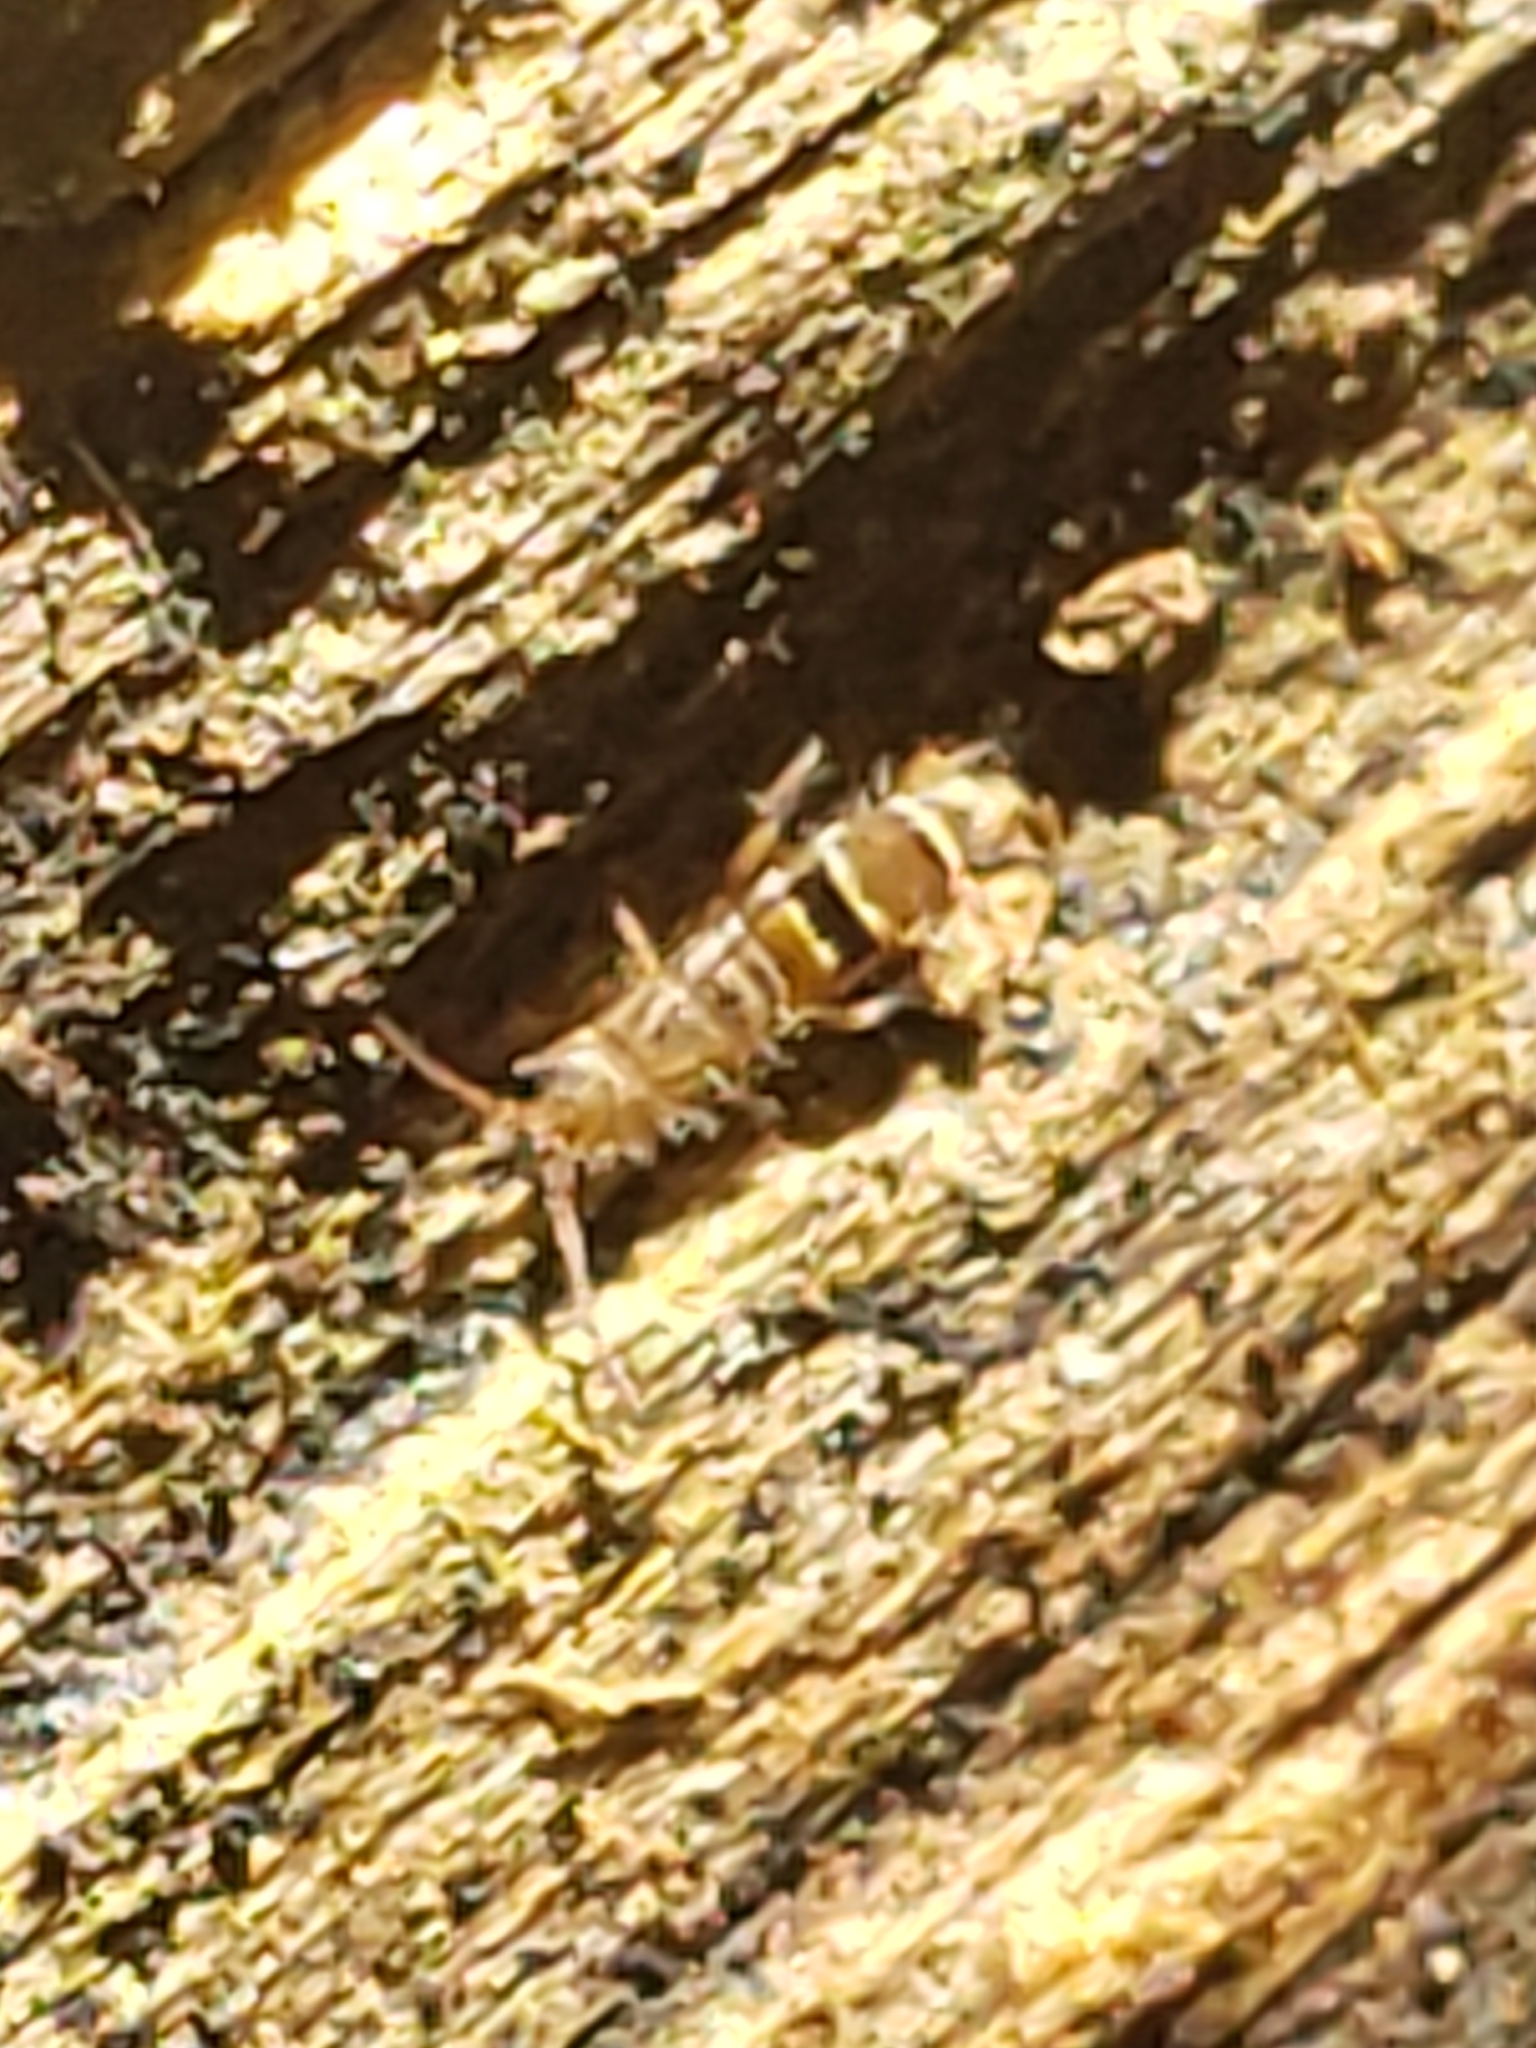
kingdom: Animalia
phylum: Arthropoda
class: Collembola
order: Entomobryomorpha
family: Orchesellidae
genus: Orchesella
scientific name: Orchesella celsa
